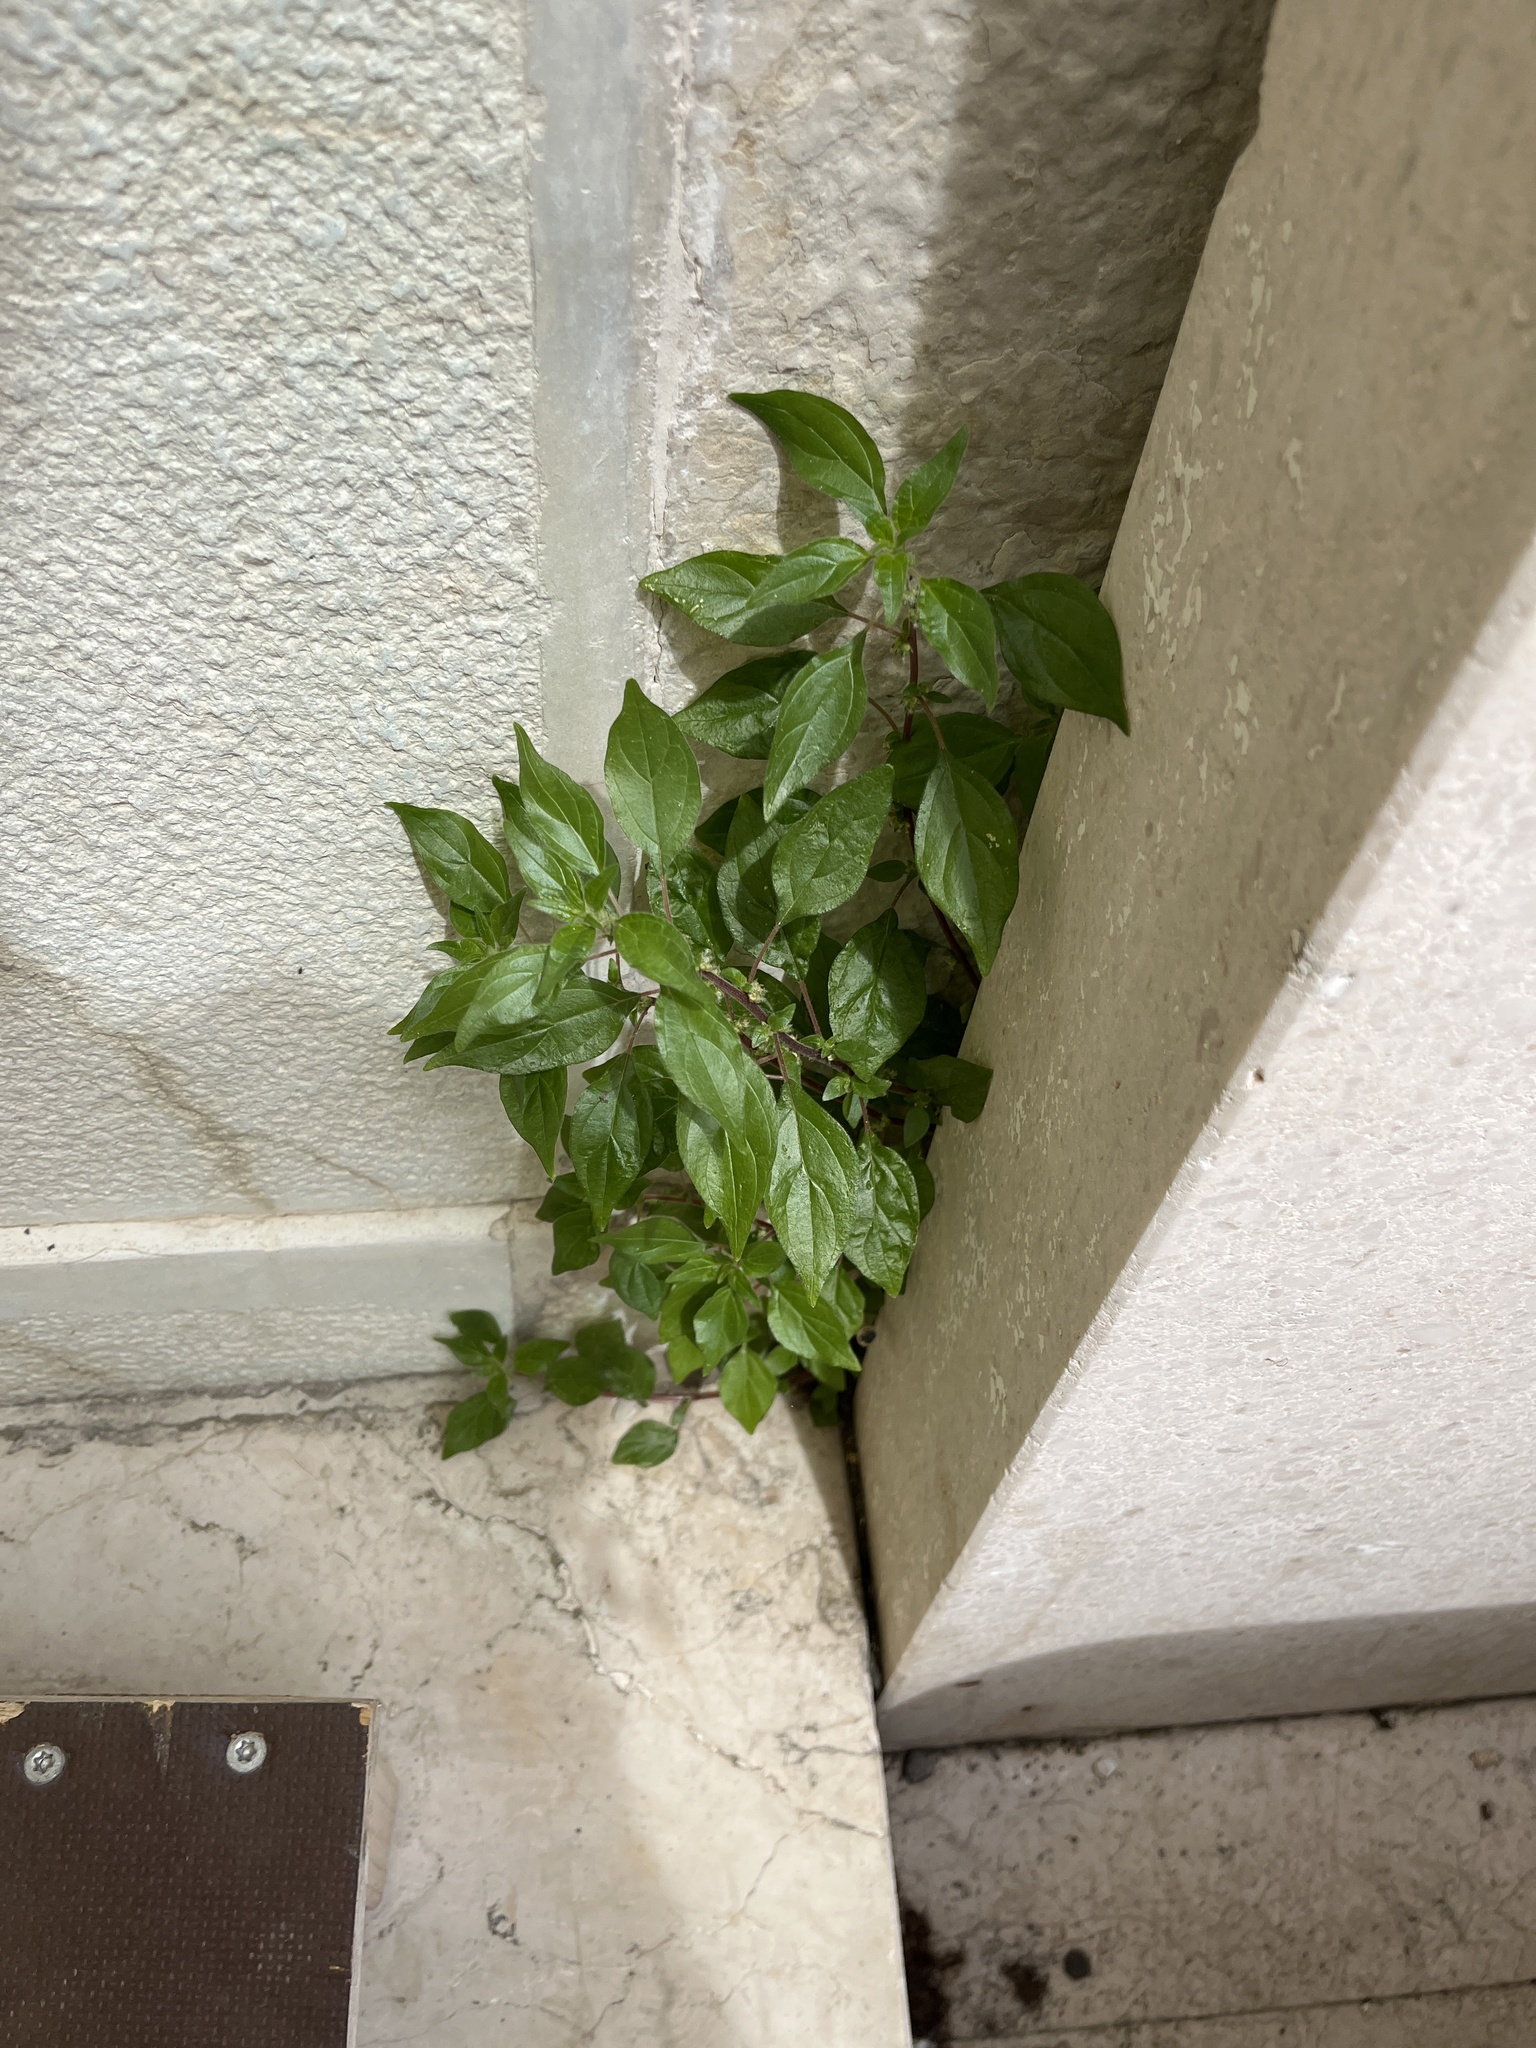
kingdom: Plantae
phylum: Tracheophyta
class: Magnoliopsida
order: Rosales
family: Urticaceae
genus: Parietaria
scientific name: Parietaria judaica
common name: Pellitory-of-the-wall
